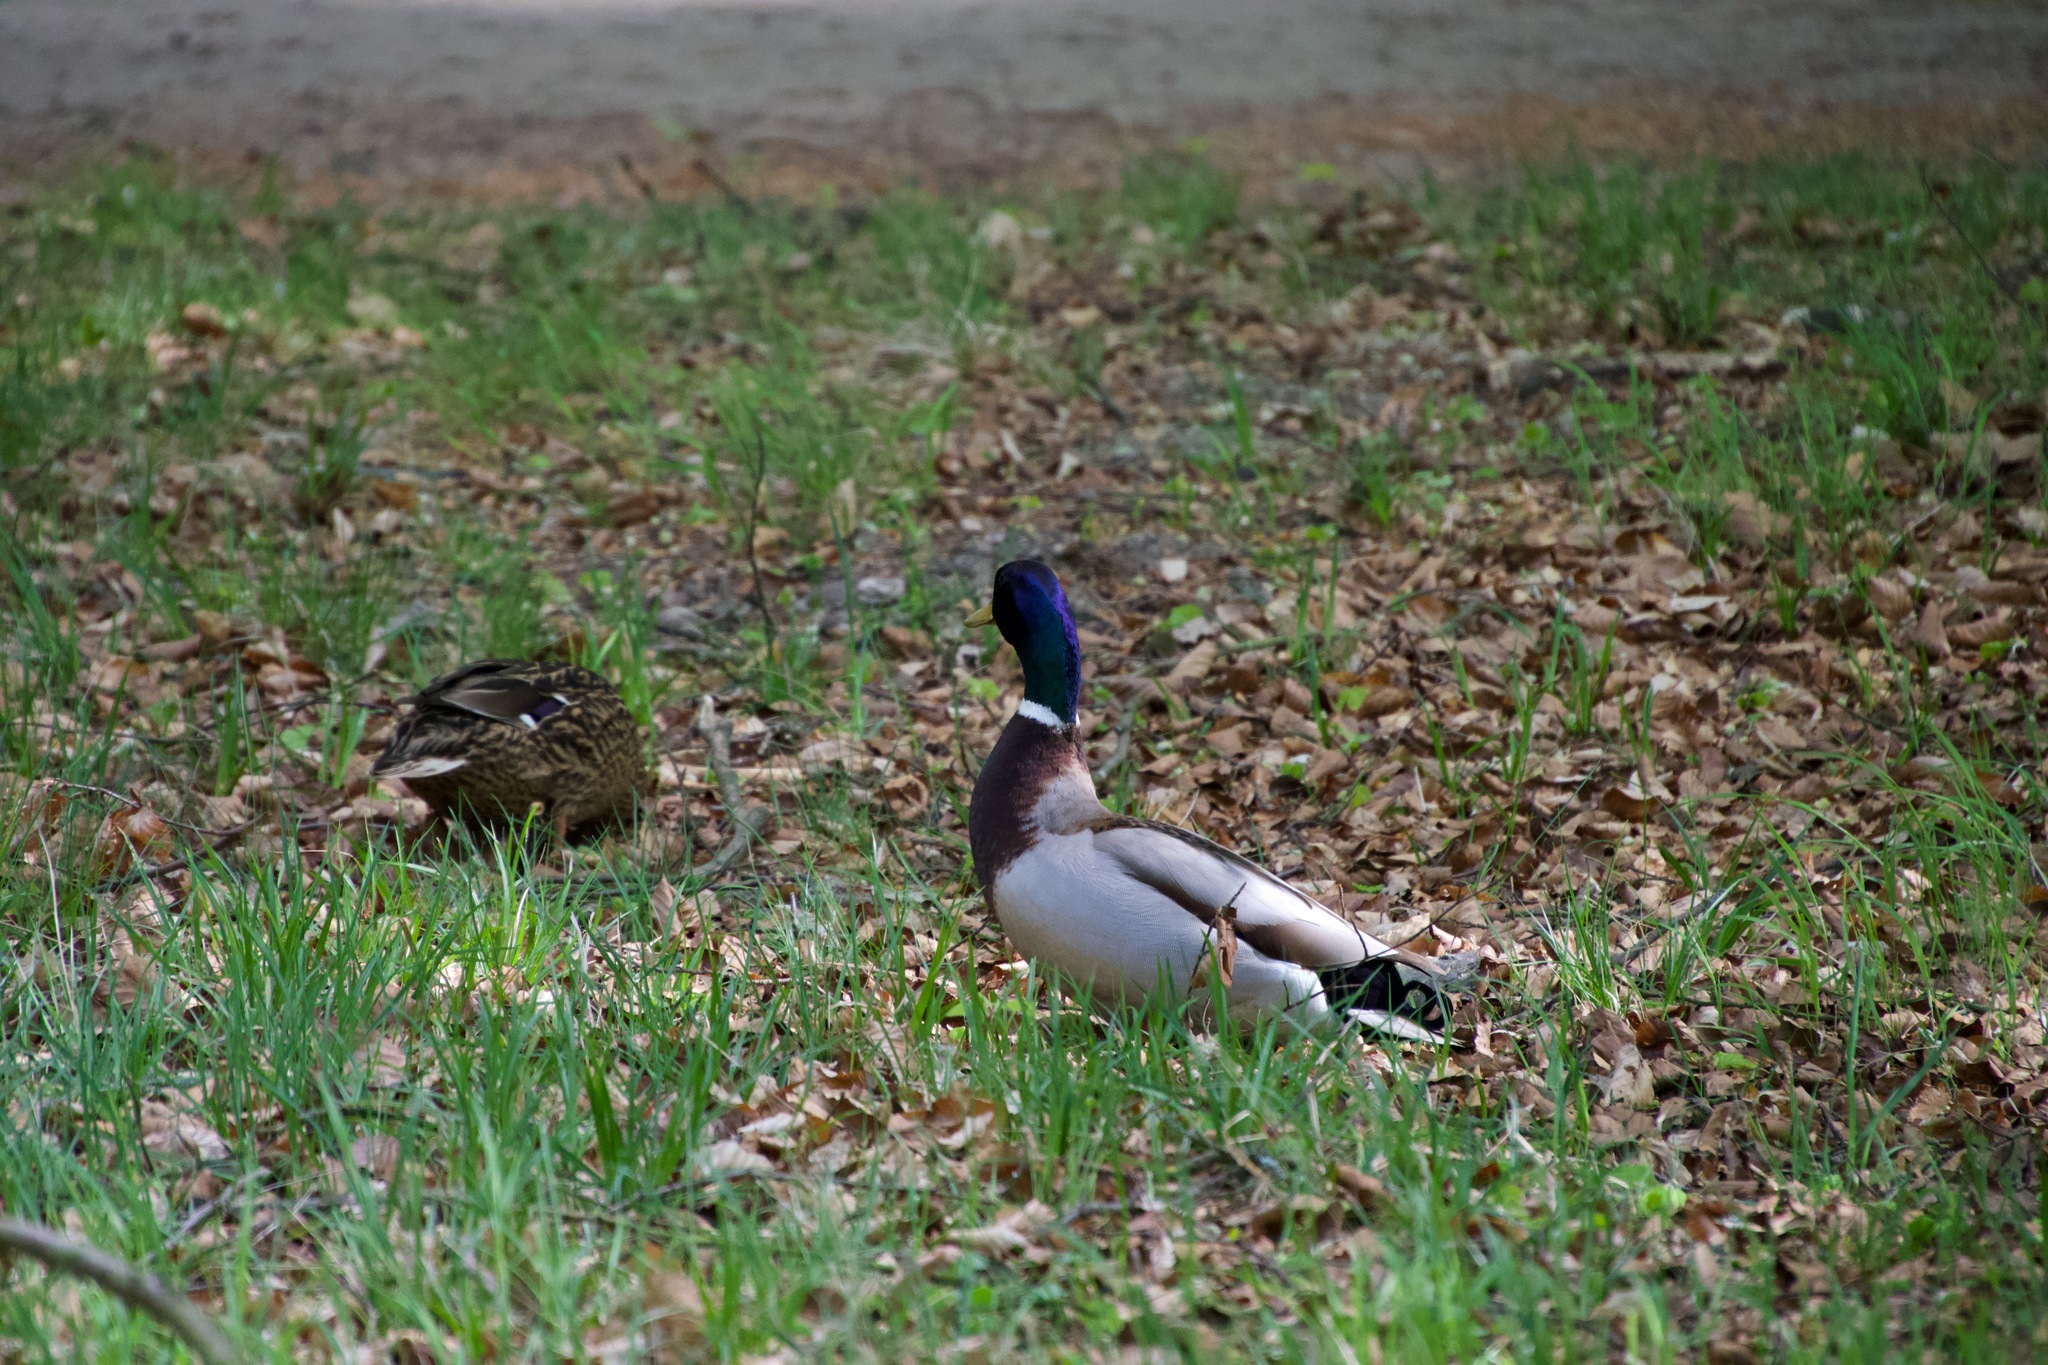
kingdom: Animalia
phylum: Chordata
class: Aves
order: Anseriformes
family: Anatidae
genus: Anas
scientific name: Anas platyrhynchos
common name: Mallard
